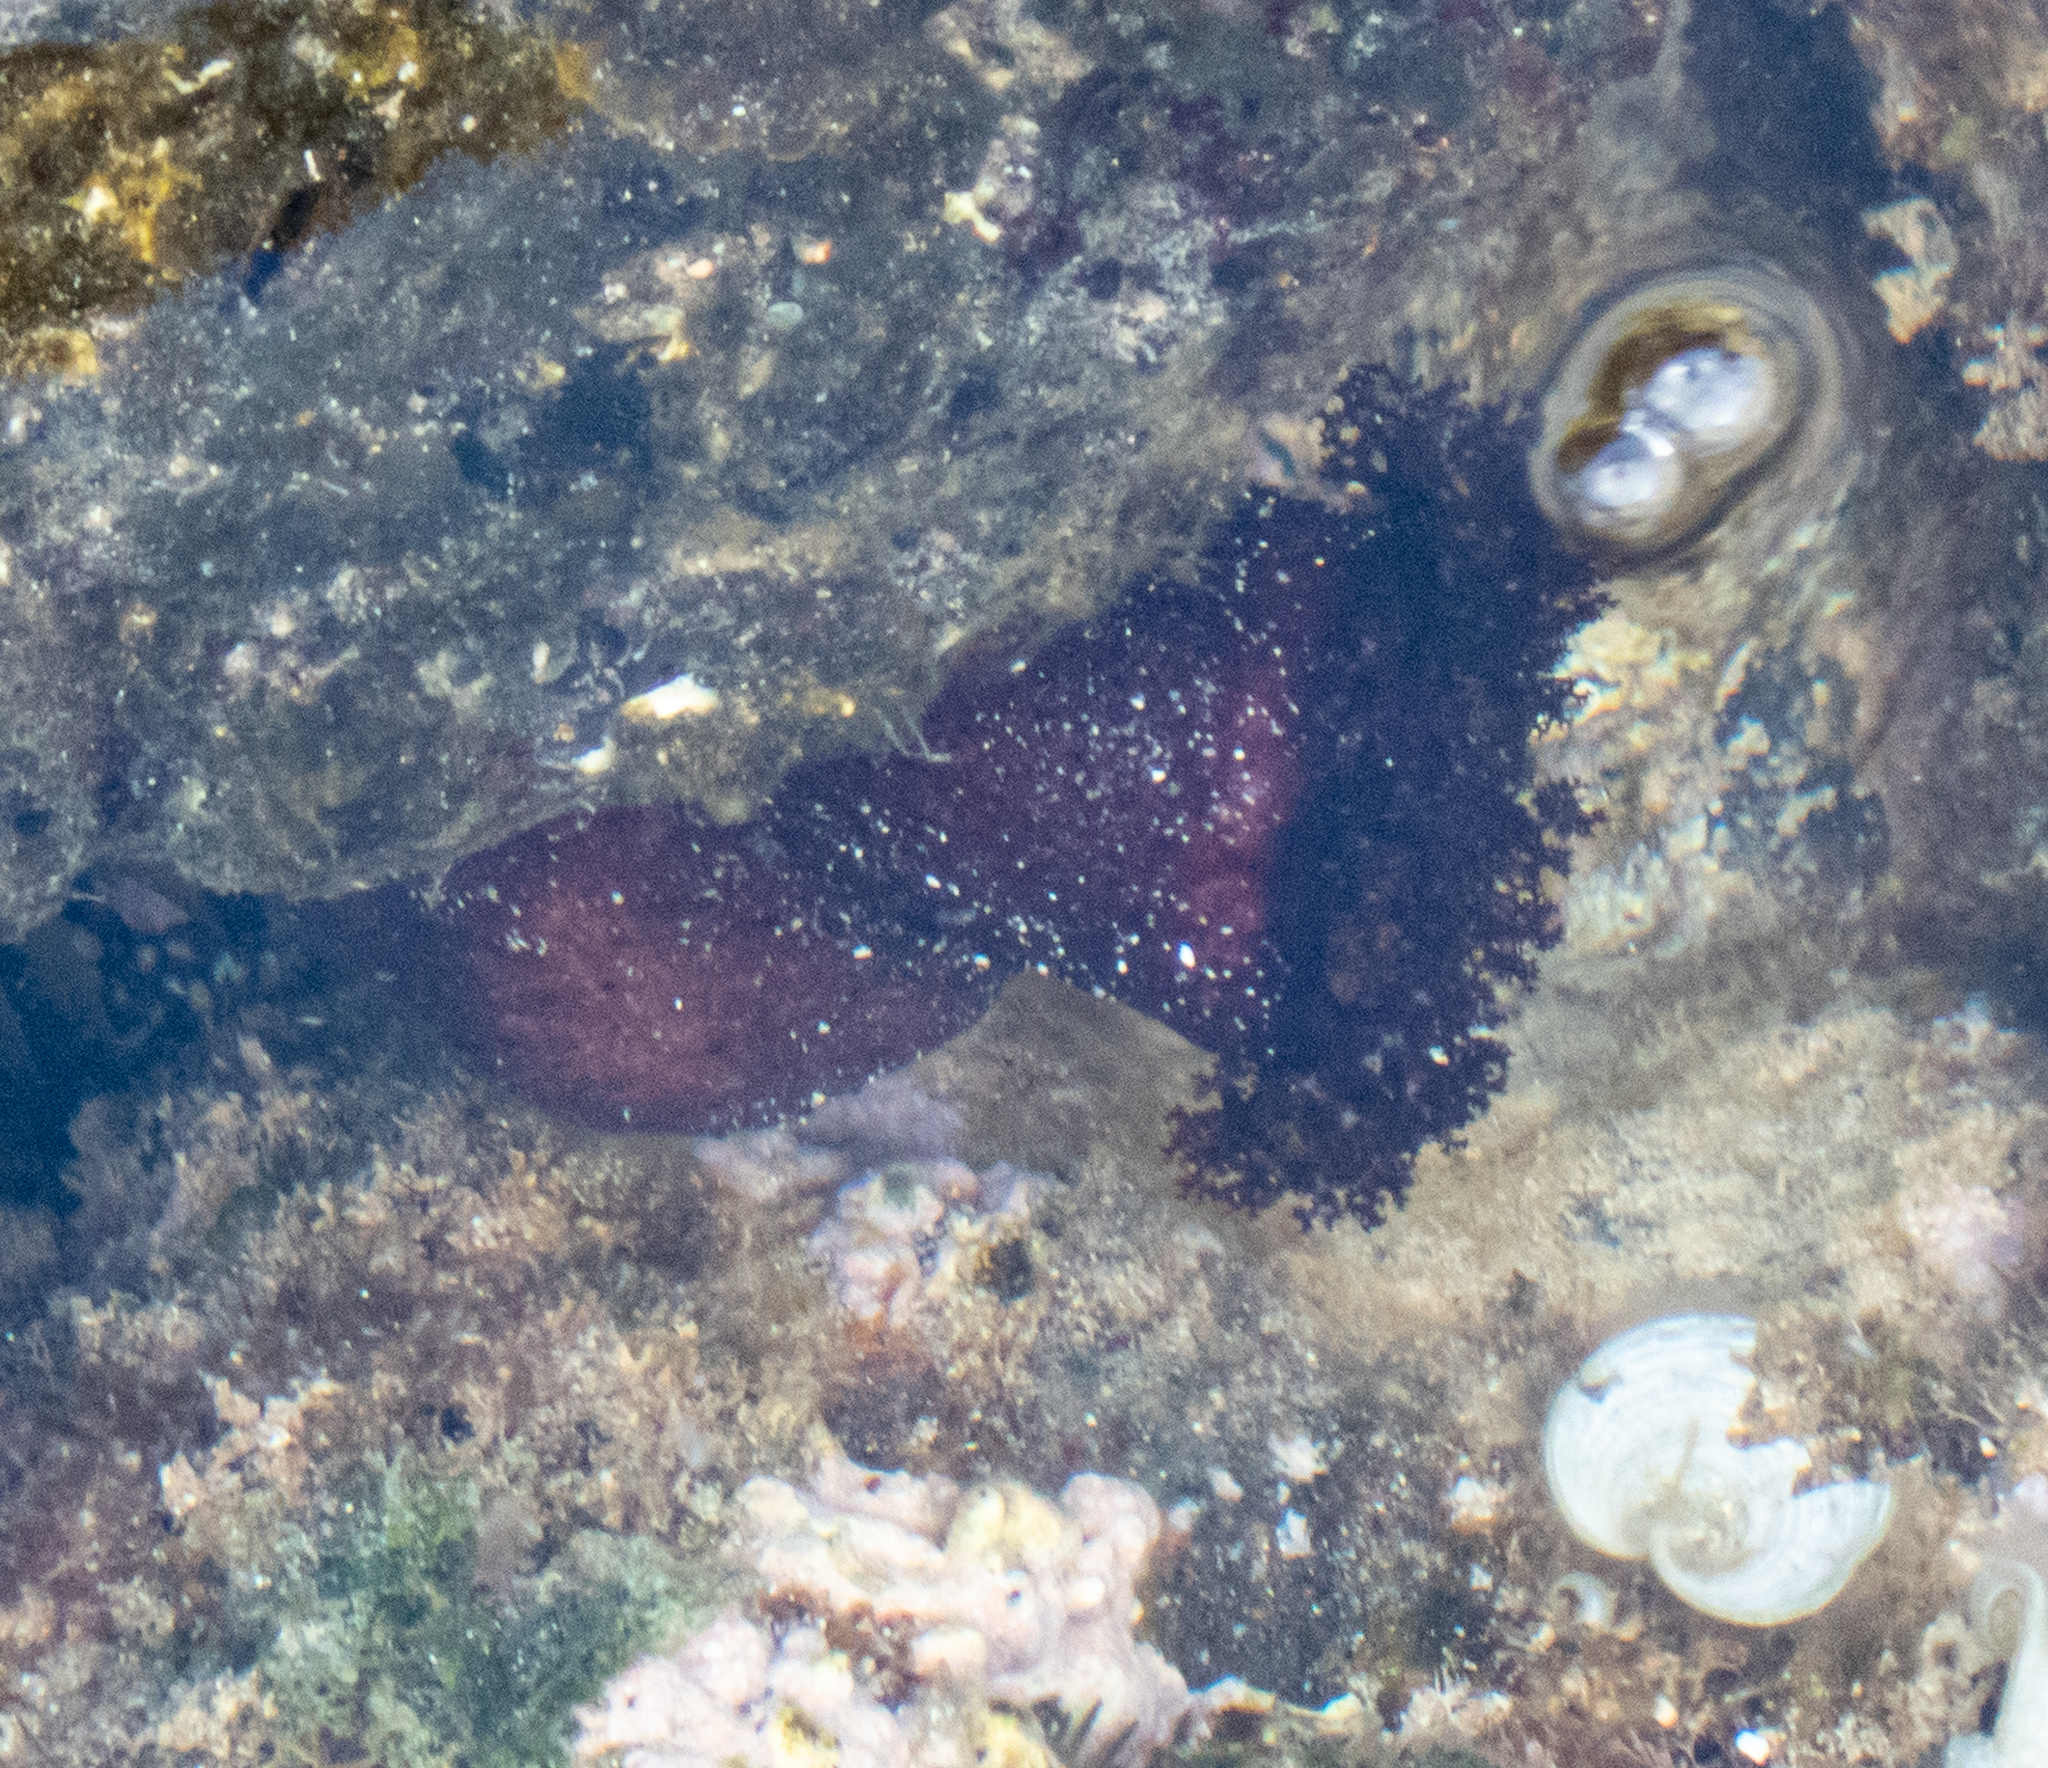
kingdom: Animalia
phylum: Echinodermata
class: Holothuroidea
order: Holothuriida
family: Holothuriidae
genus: Holothuria
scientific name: Holothuria cinerascens
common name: Ashy sea cucumber
